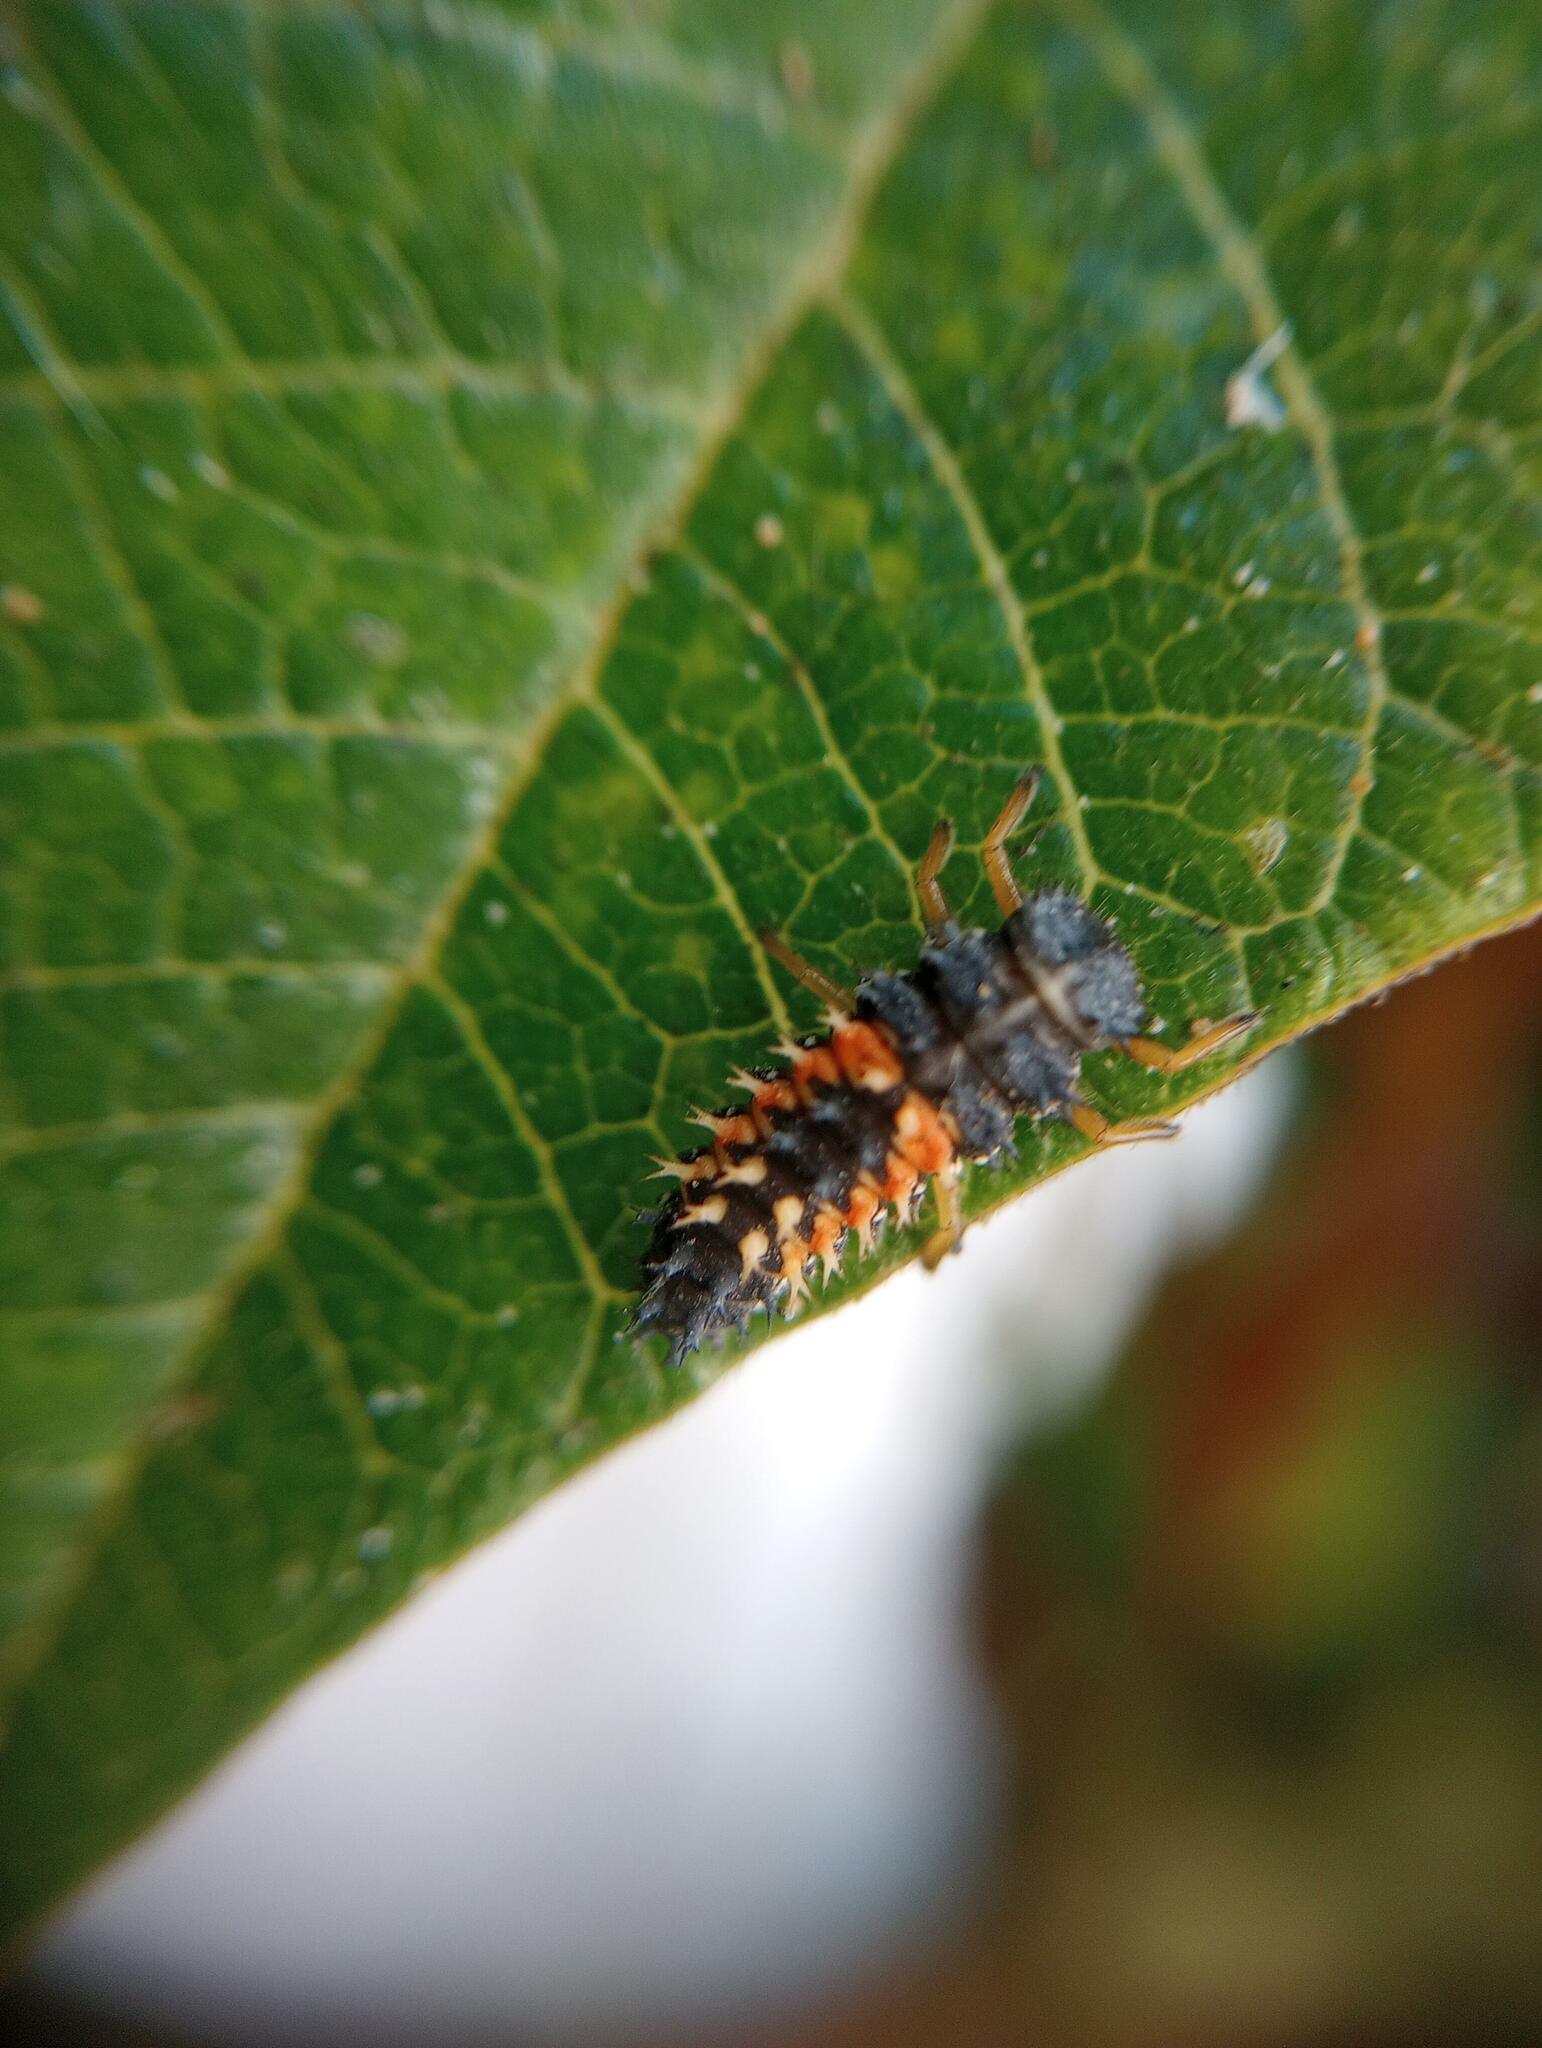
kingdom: Animalia
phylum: Arthropoda
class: Insecta
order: Coleoptera
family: Coccinellidae
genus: Harmonia
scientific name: Harmonia axyridis
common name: Harlequin ladybird
